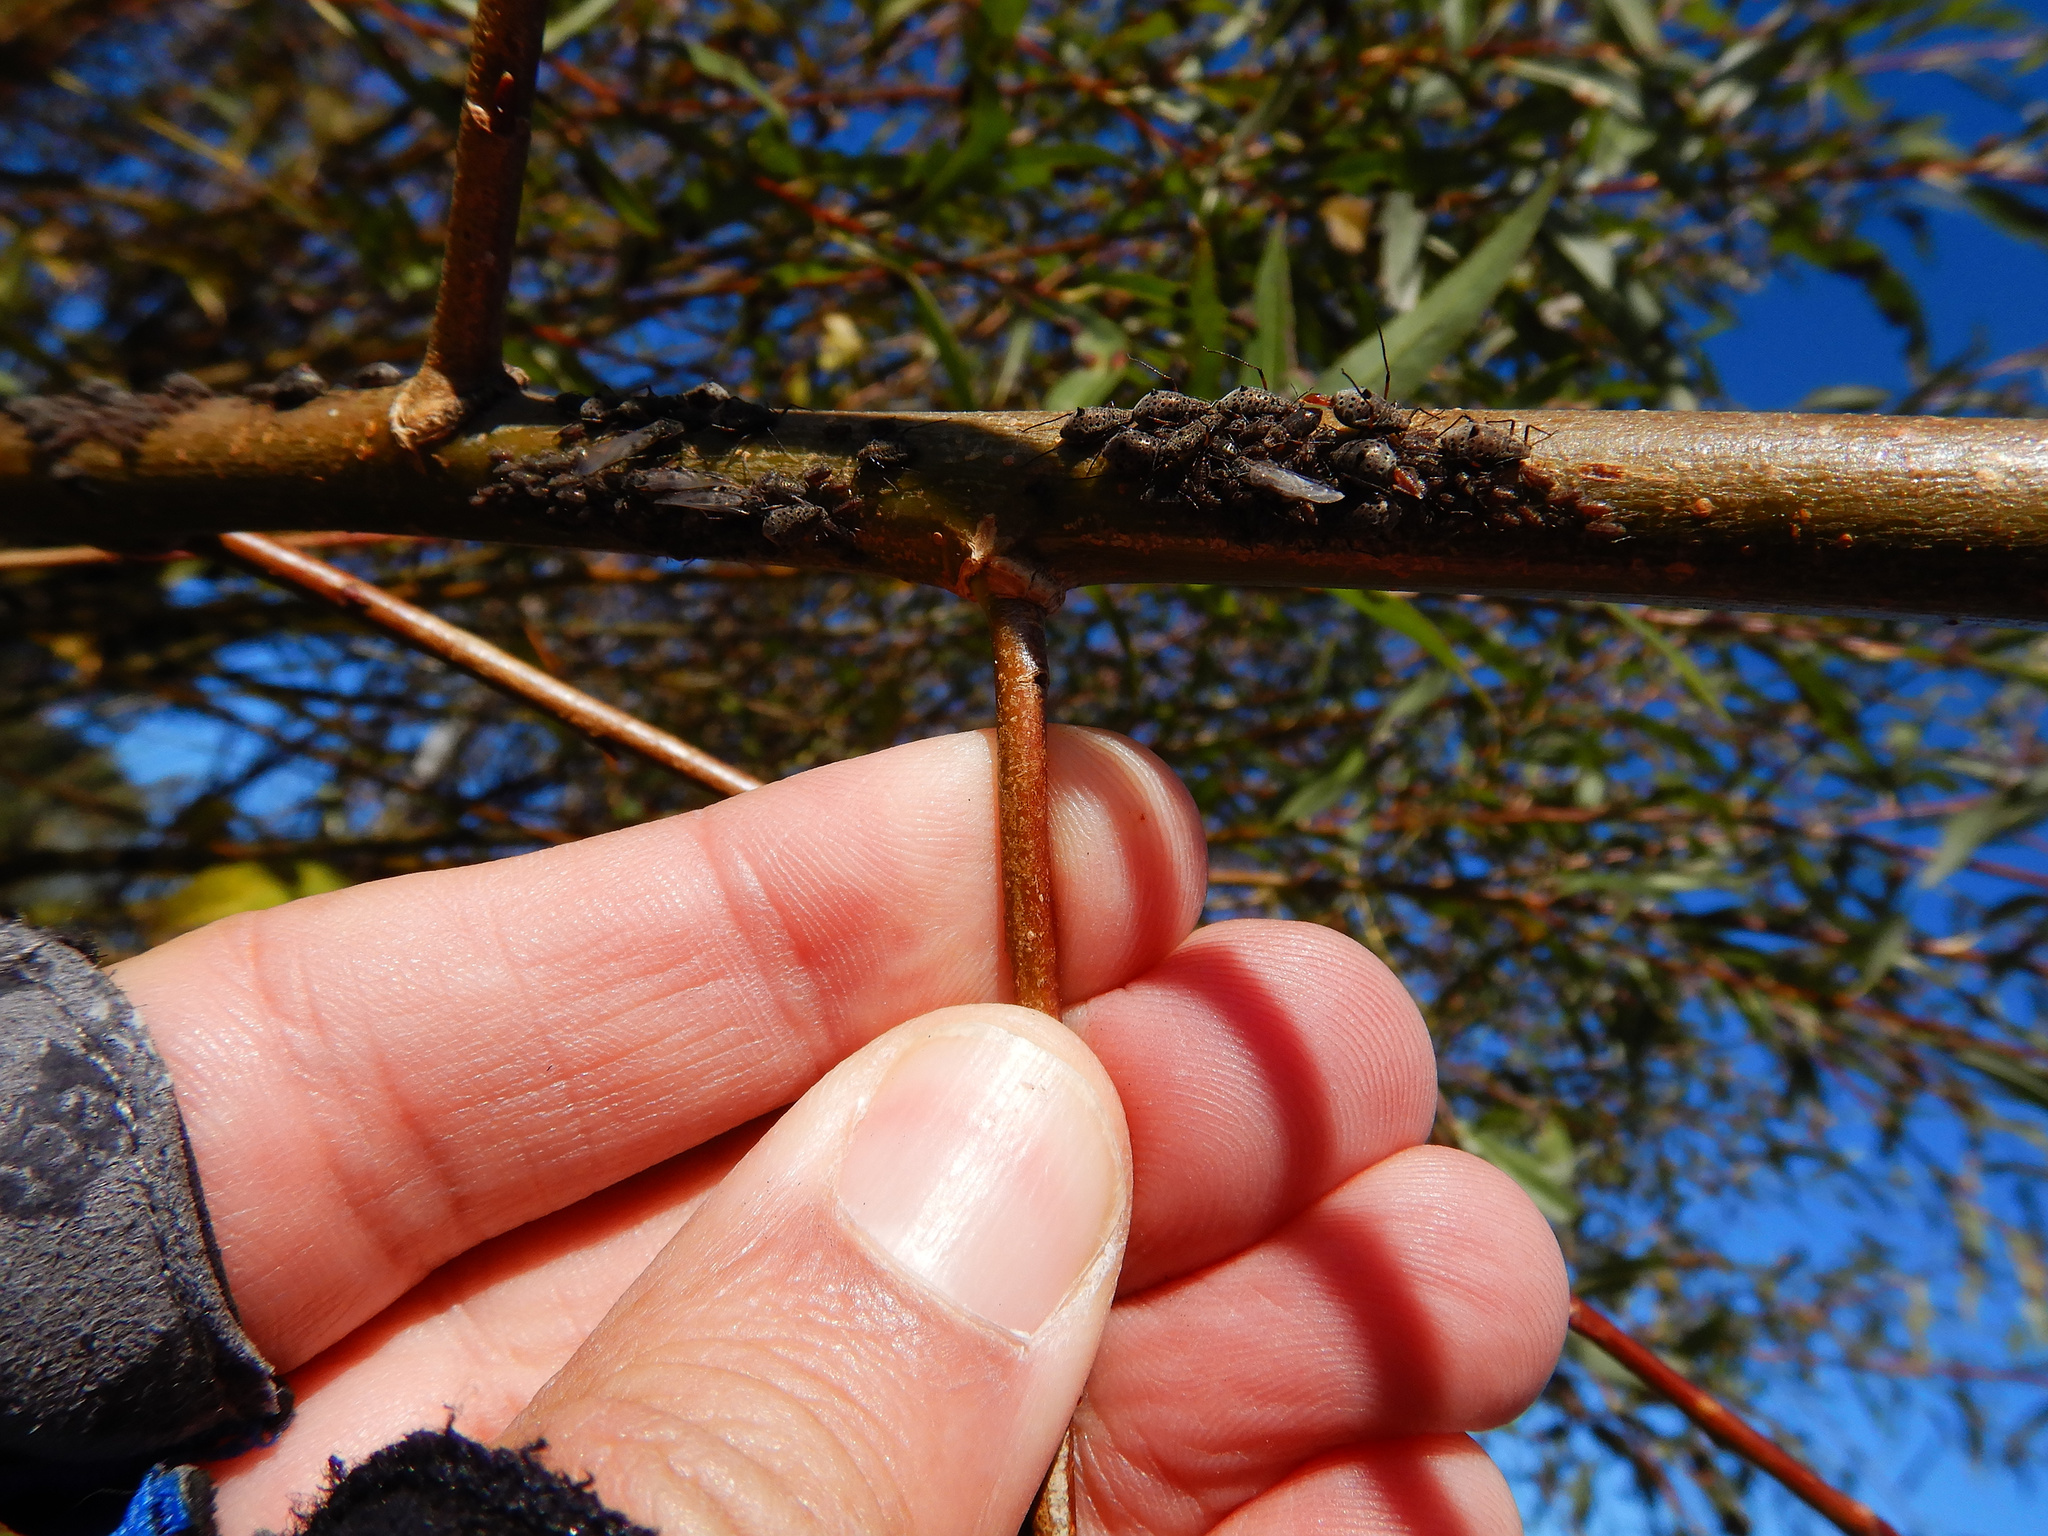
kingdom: Animalia
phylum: Arthropoda
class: Insecta
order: Hemiptera
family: Aphididae
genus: Tuberolachnus
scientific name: Tuberolachnus salignus
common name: Giant willow aphid
